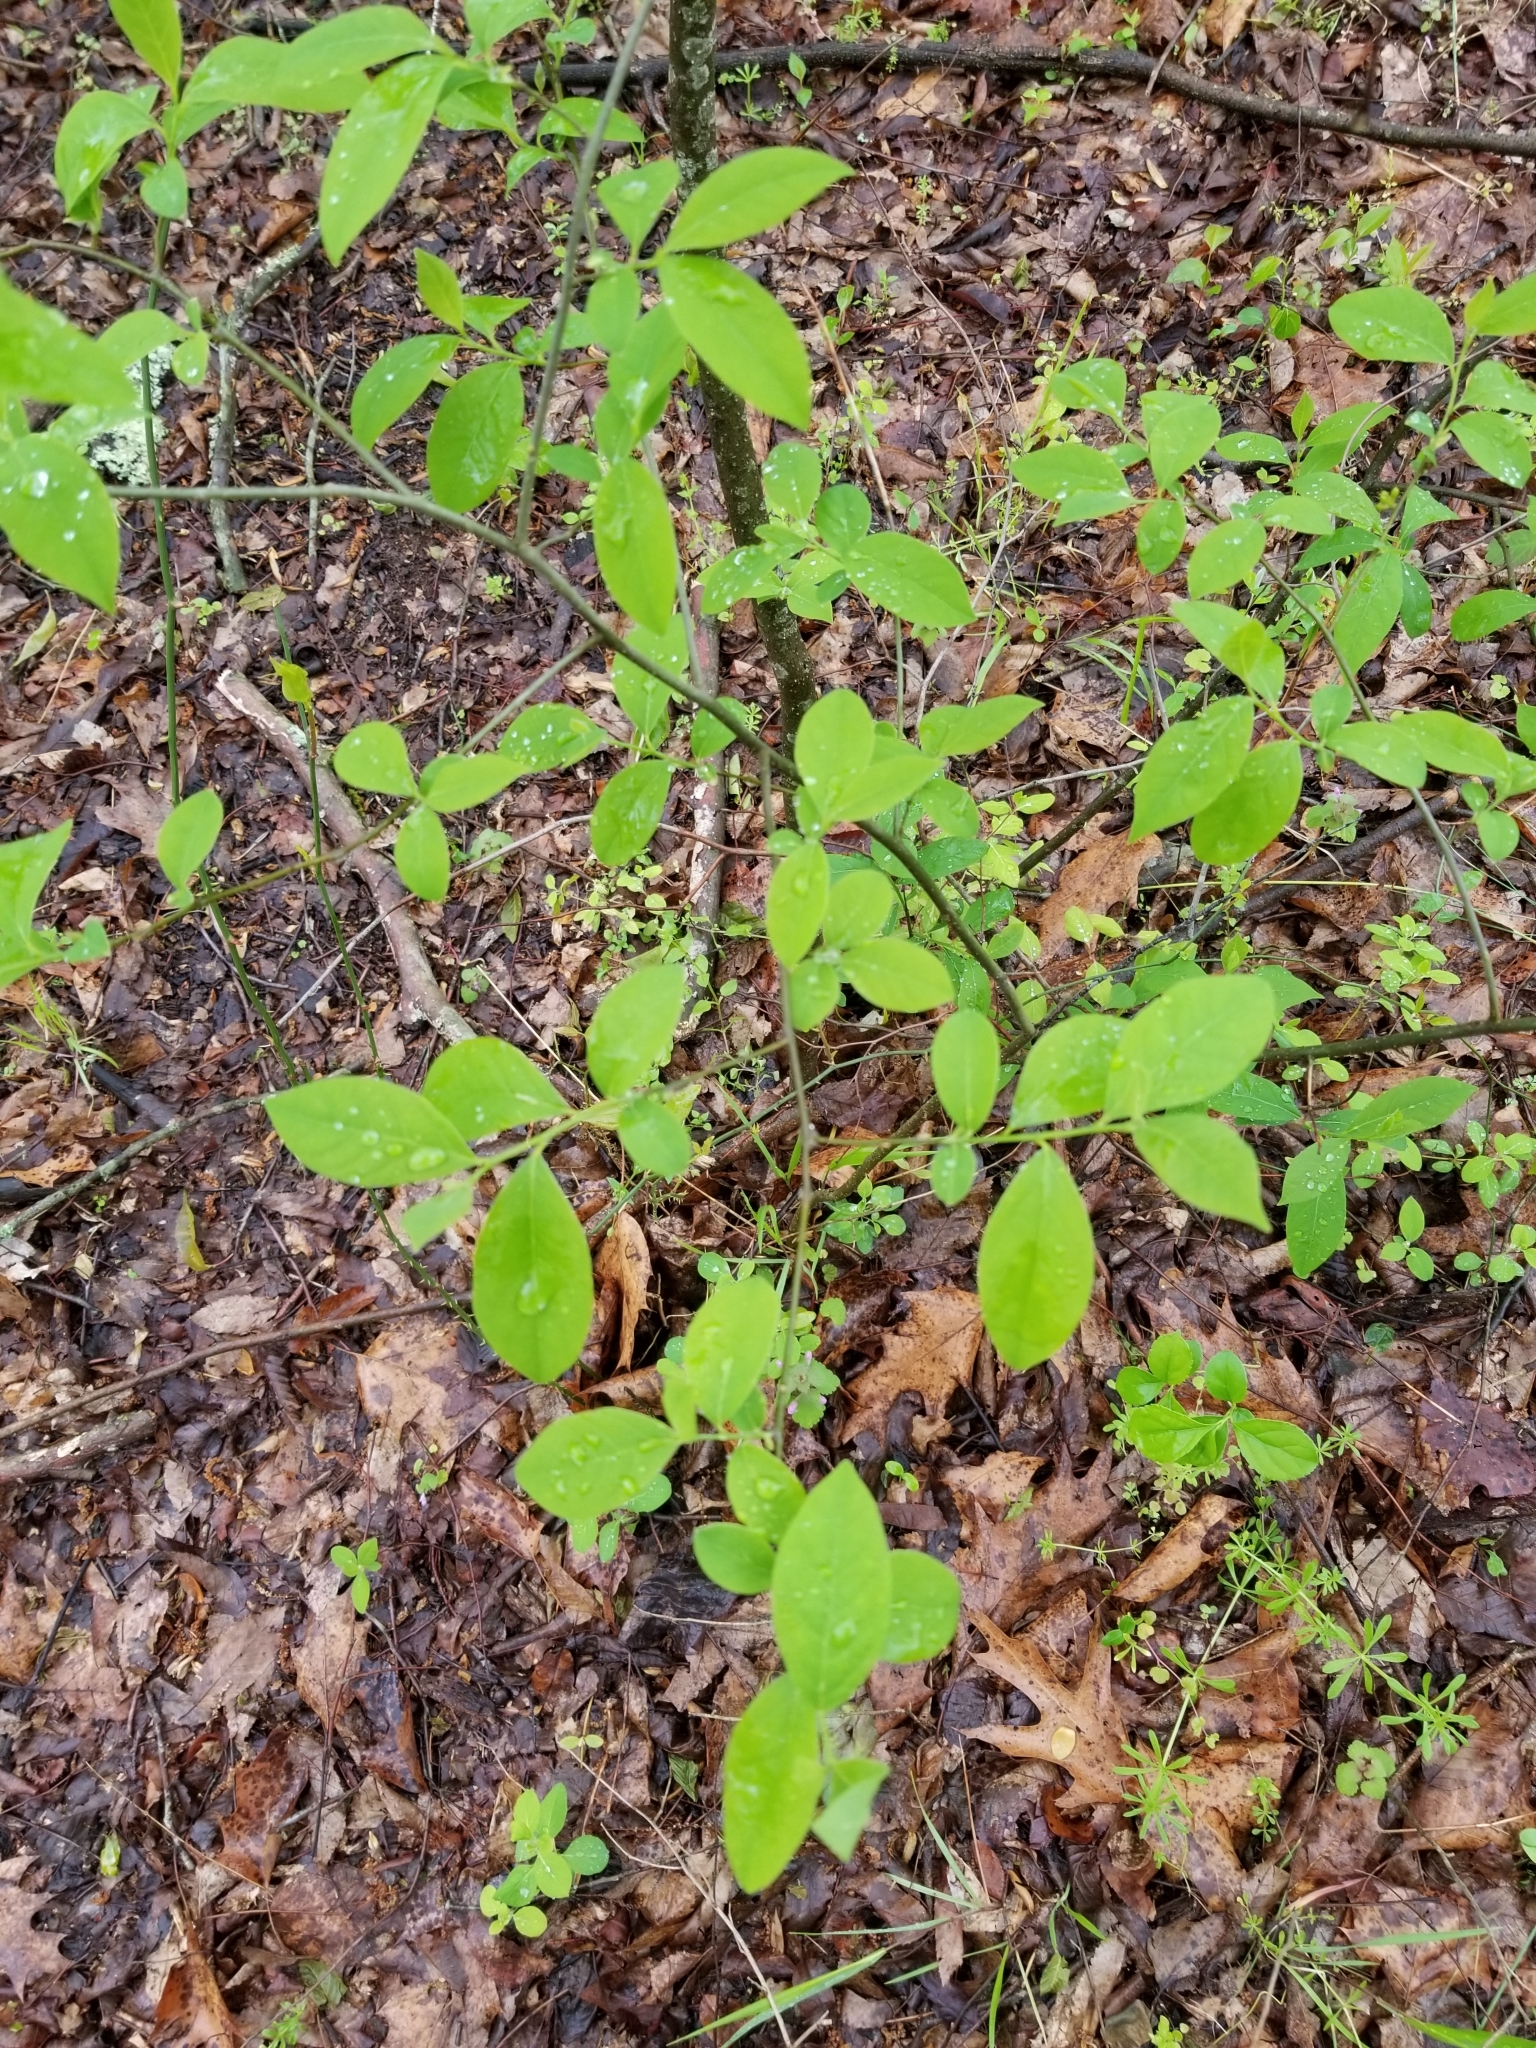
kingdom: Plantae
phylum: Tracheophyta
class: Magnoliopsida
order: Laurales
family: Lauraceae
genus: Lindera
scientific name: Lindera benzoin
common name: Spicebush
